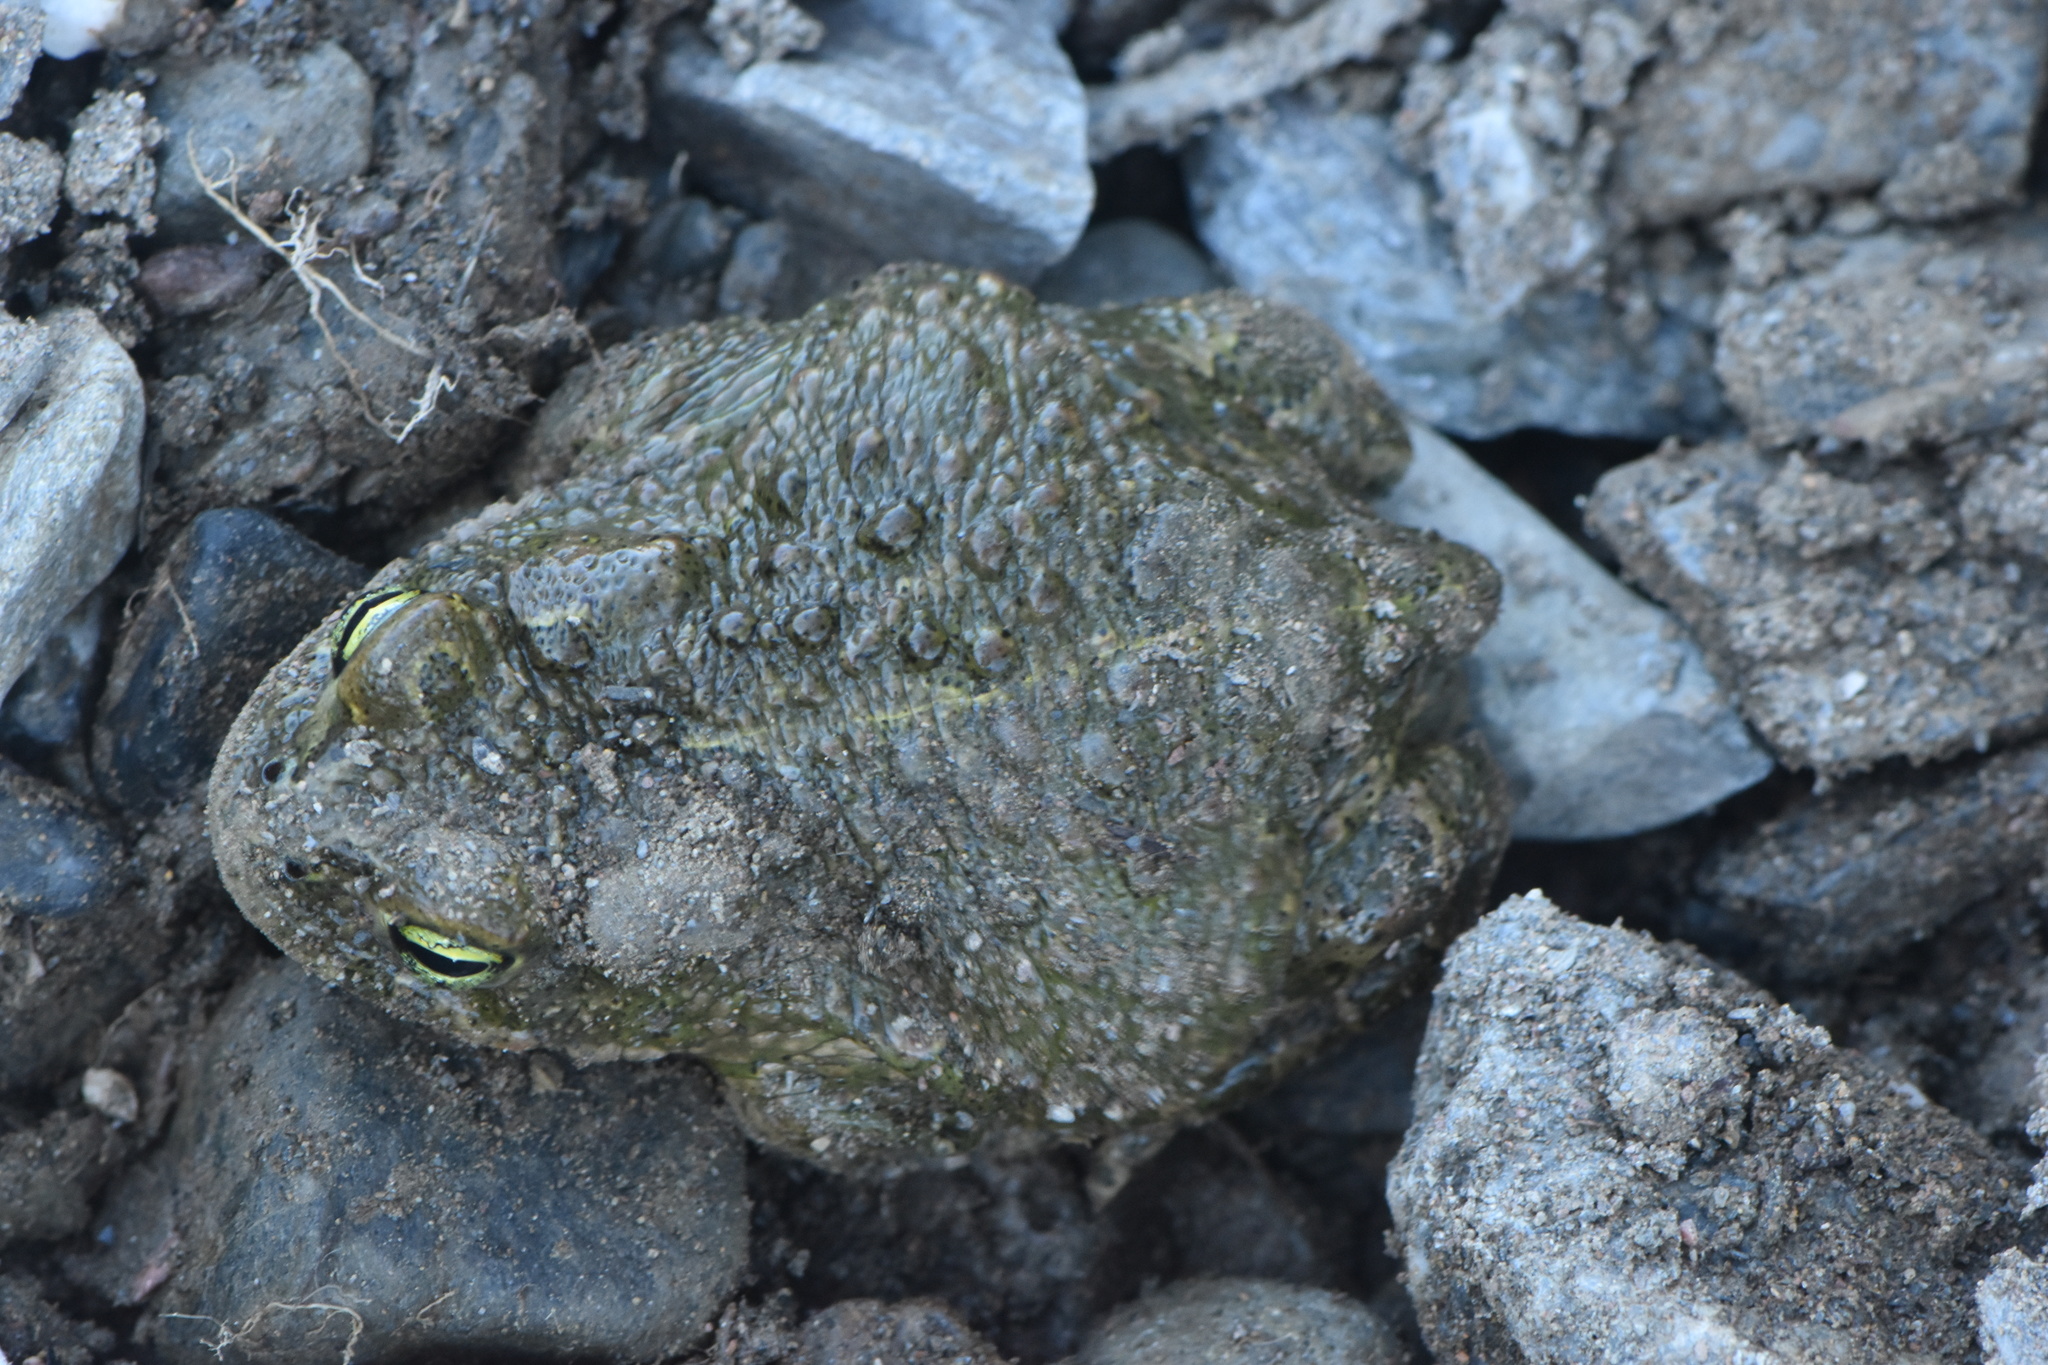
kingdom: Animalia
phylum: Chordata
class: Amphibia
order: Anura
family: Bufonidae
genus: Epidalea
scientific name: Epidalea calamita
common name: Natterjack toad
